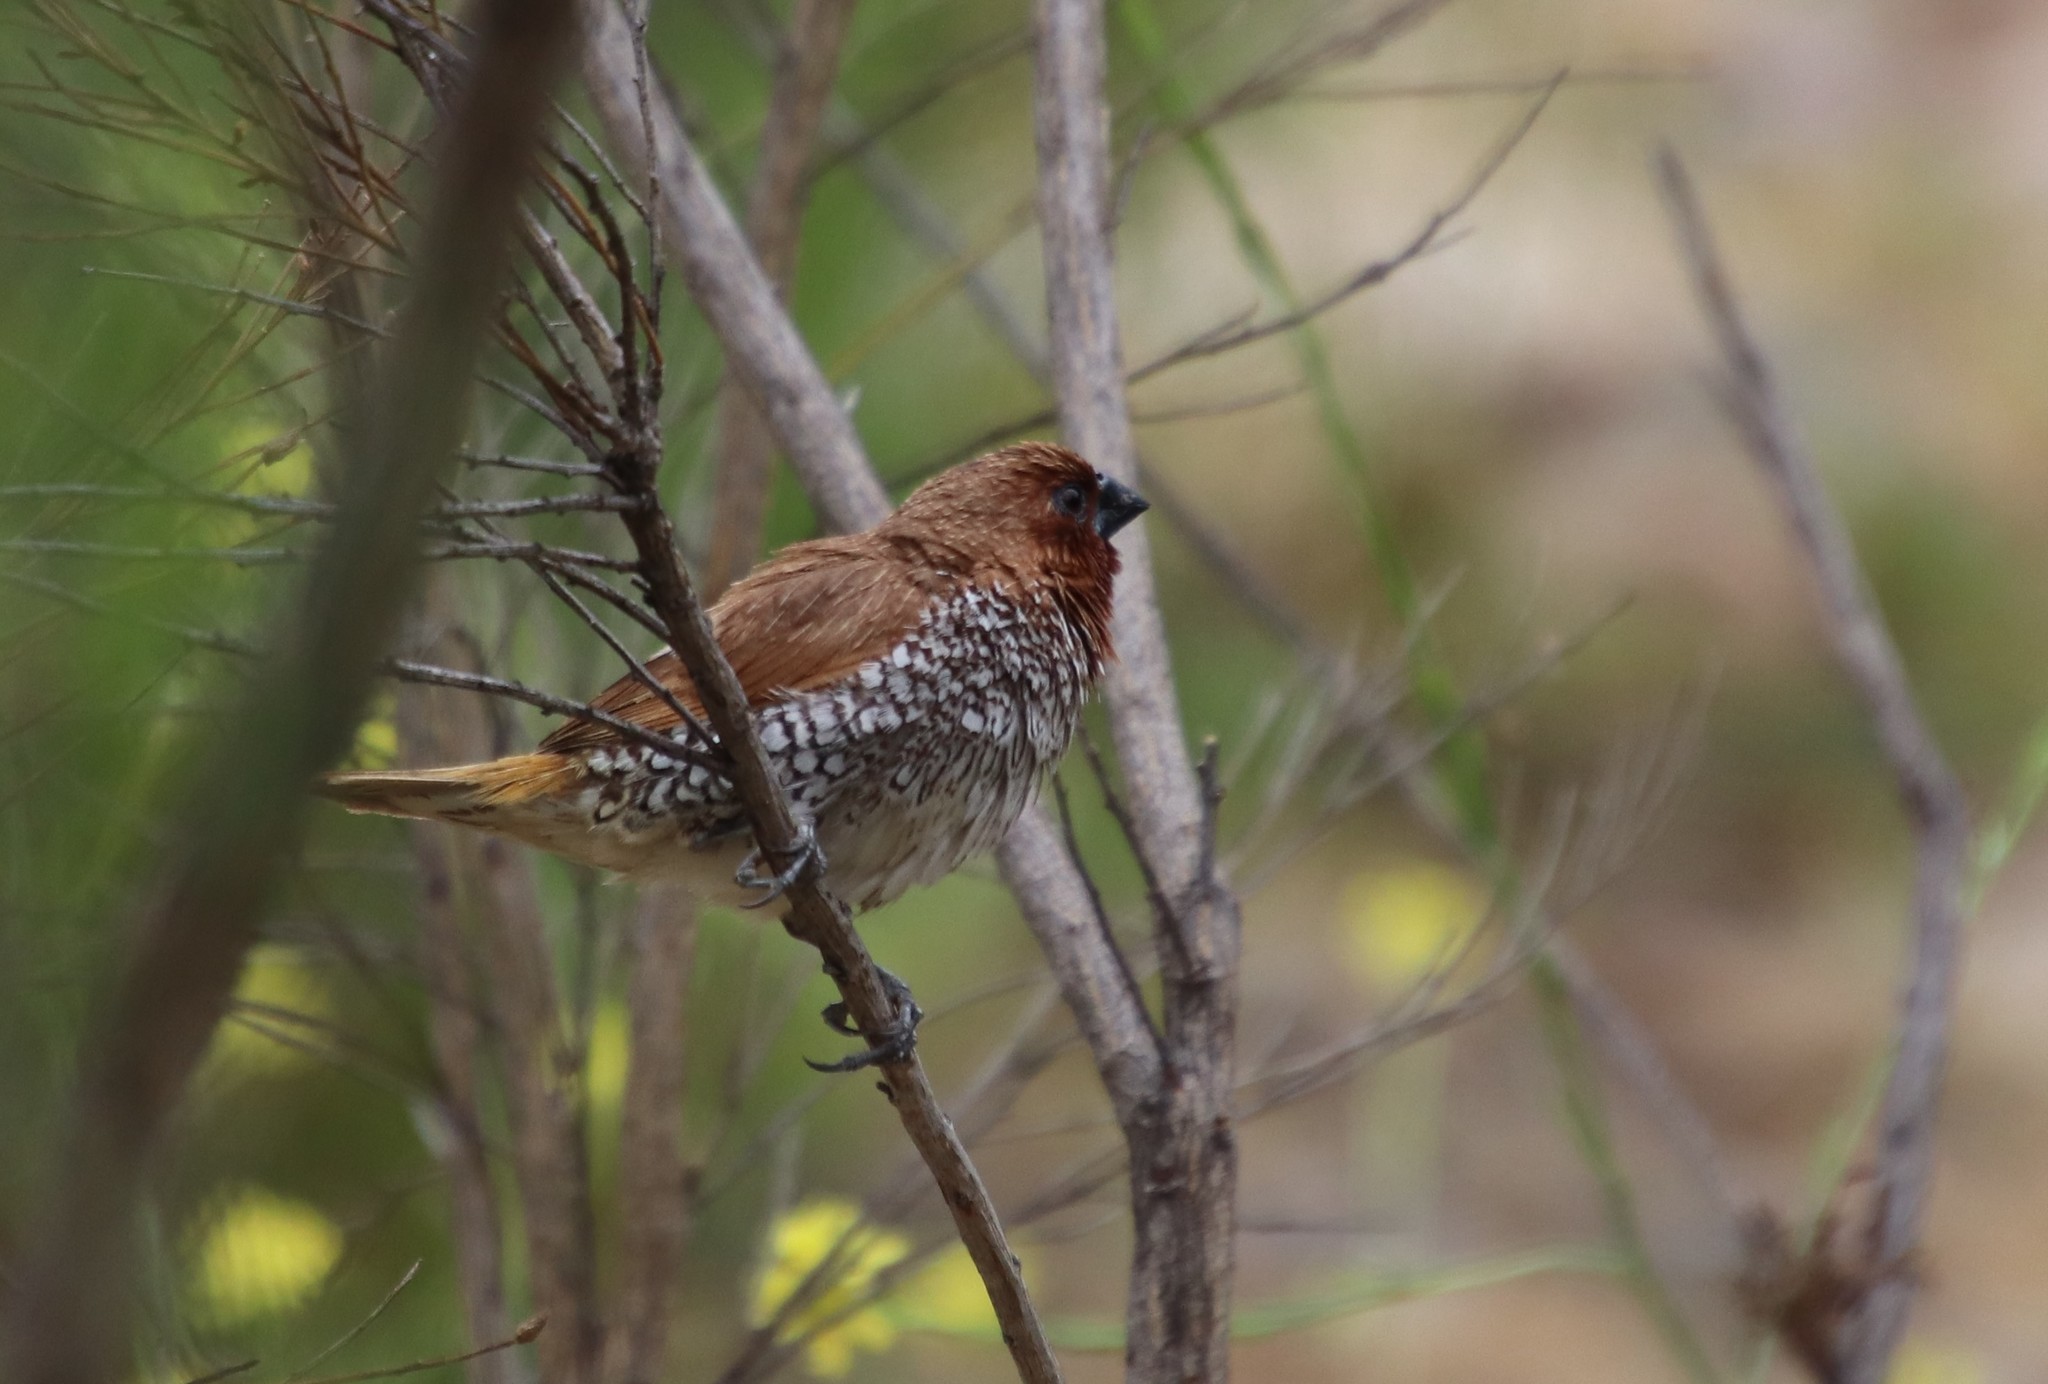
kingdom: Animalia
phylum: Chordata
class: Aves
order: Passeriformes
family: Estrildidae
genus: Lonchura
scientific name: Lonchura punctulata
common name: Scaly-breasted munia
